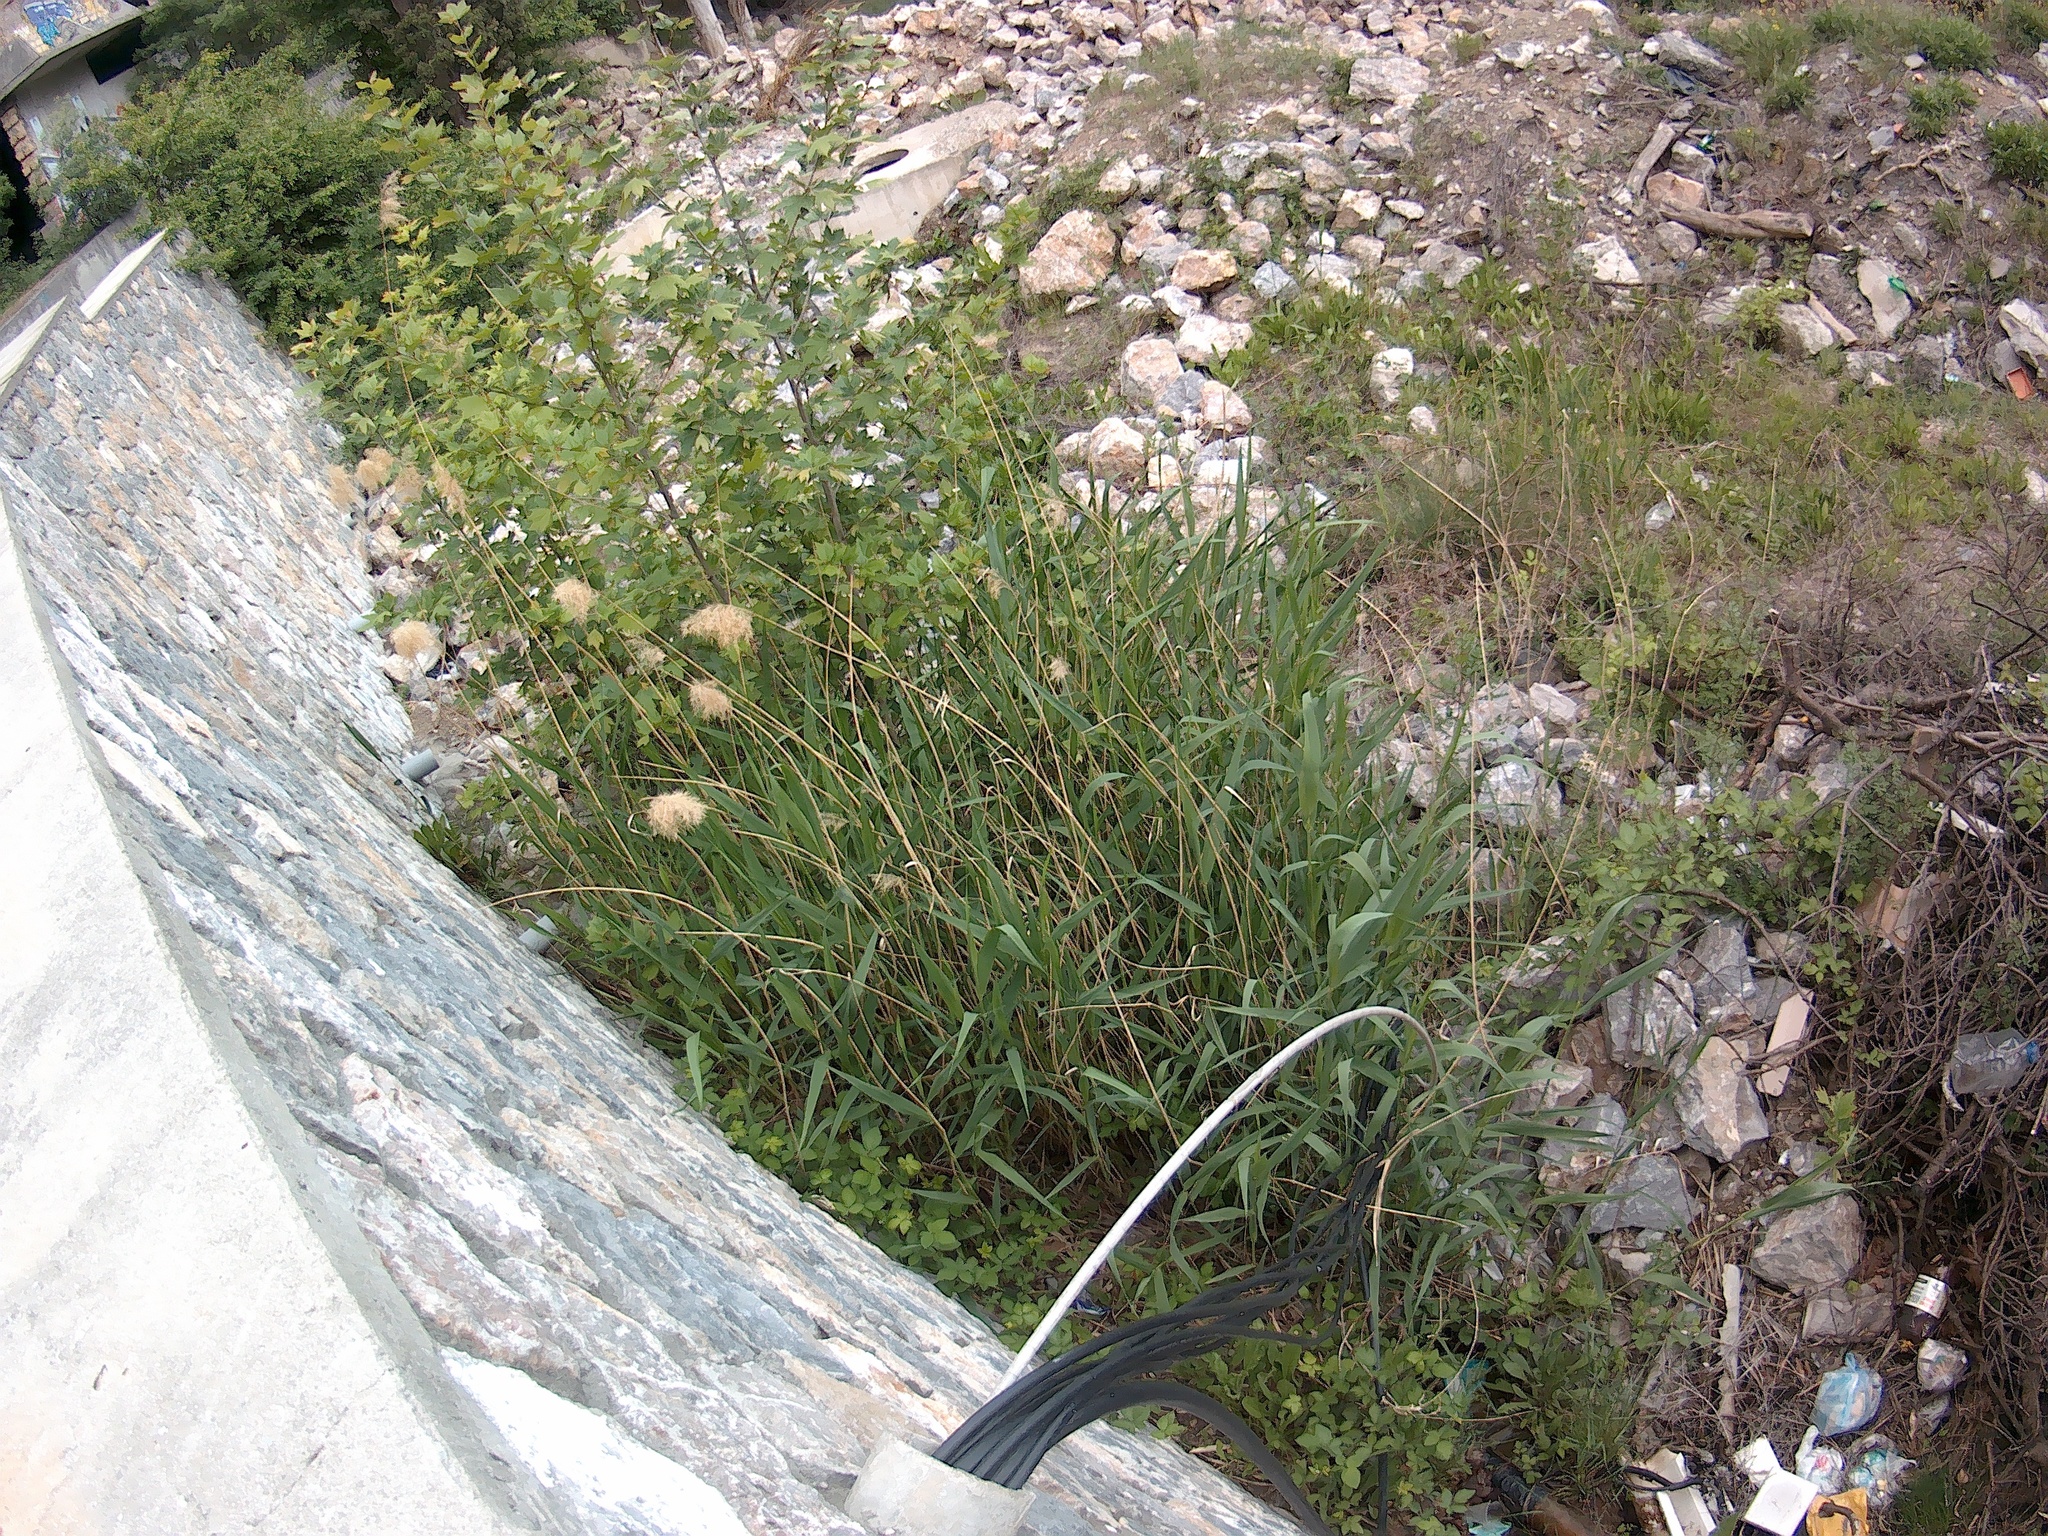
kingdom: Plantae
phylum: Tracheophyta
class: Liliopsida
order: Poales
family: Poaceae
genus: Phragmites
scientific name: Phragmites australis
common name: Common reed
